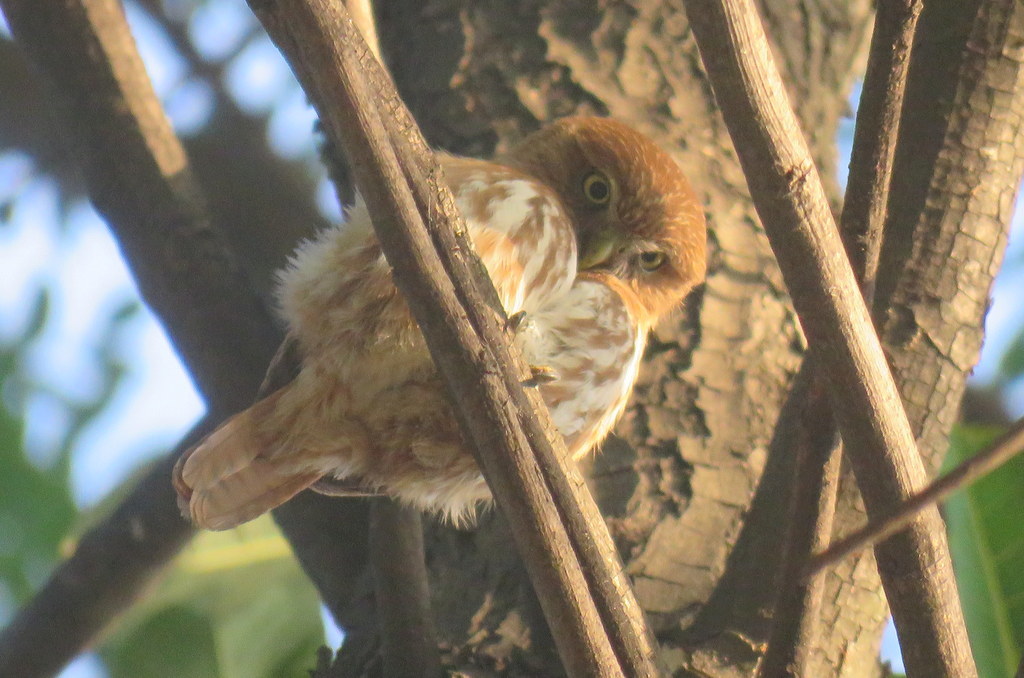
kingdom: Animalia
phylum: Chordata
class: Aves
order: Strigiformes
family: Strigidae
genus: Glaucidium
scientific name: Glaucidium brasilianum
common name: Ferruginous pygmy-owl
